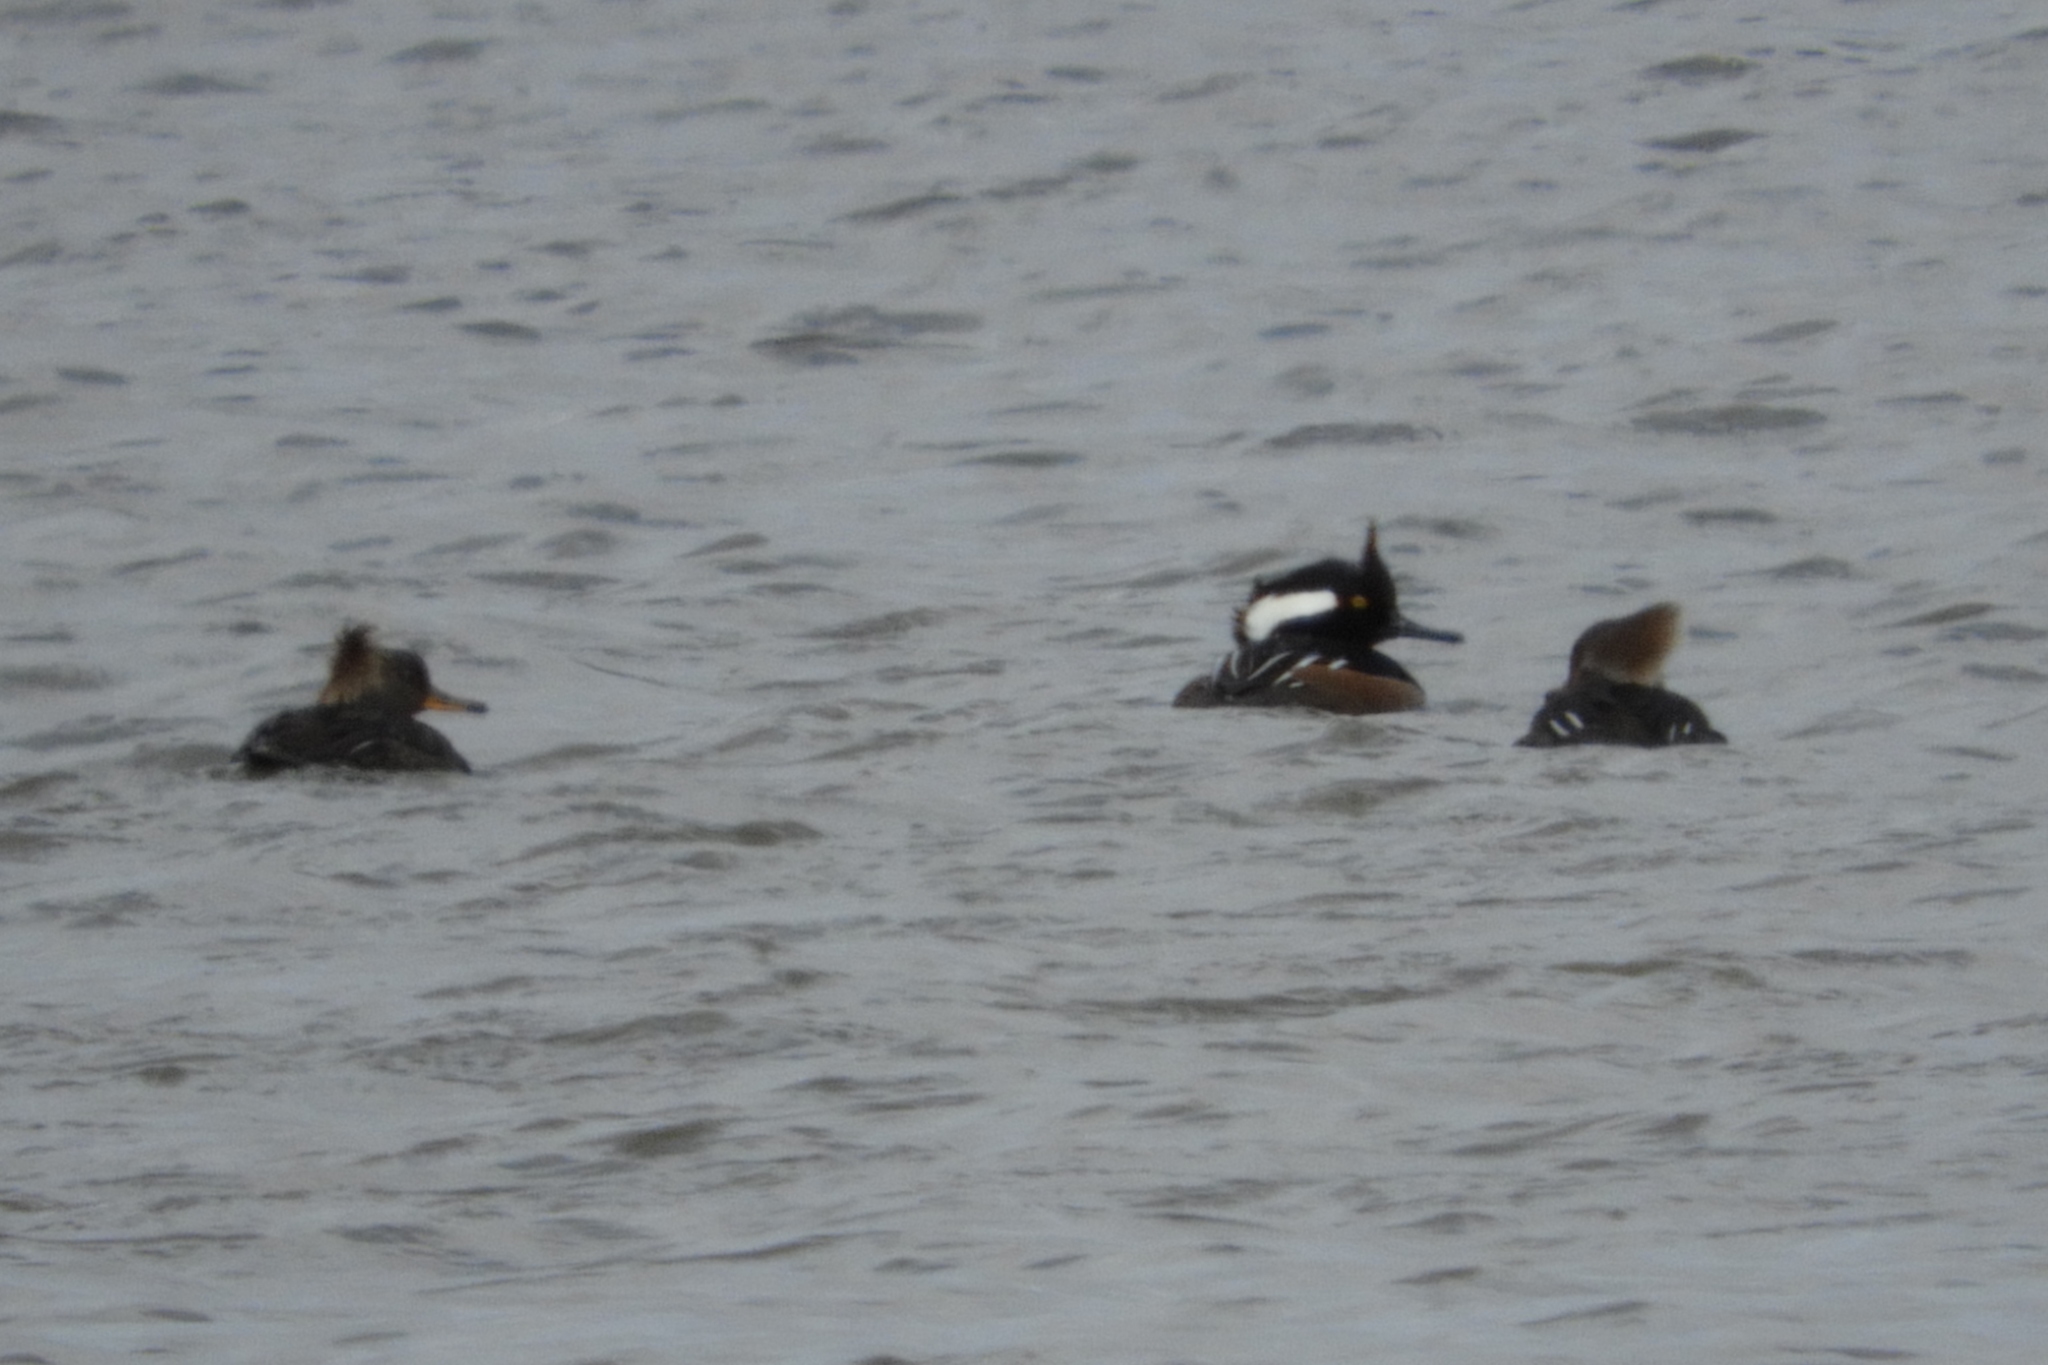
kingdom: Animalia
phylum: Chordata
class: Aves
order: Anseriformes
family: Anatidae
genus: Lophodytes
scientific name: Lophodytes cucullatus
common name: Hooded merganser
